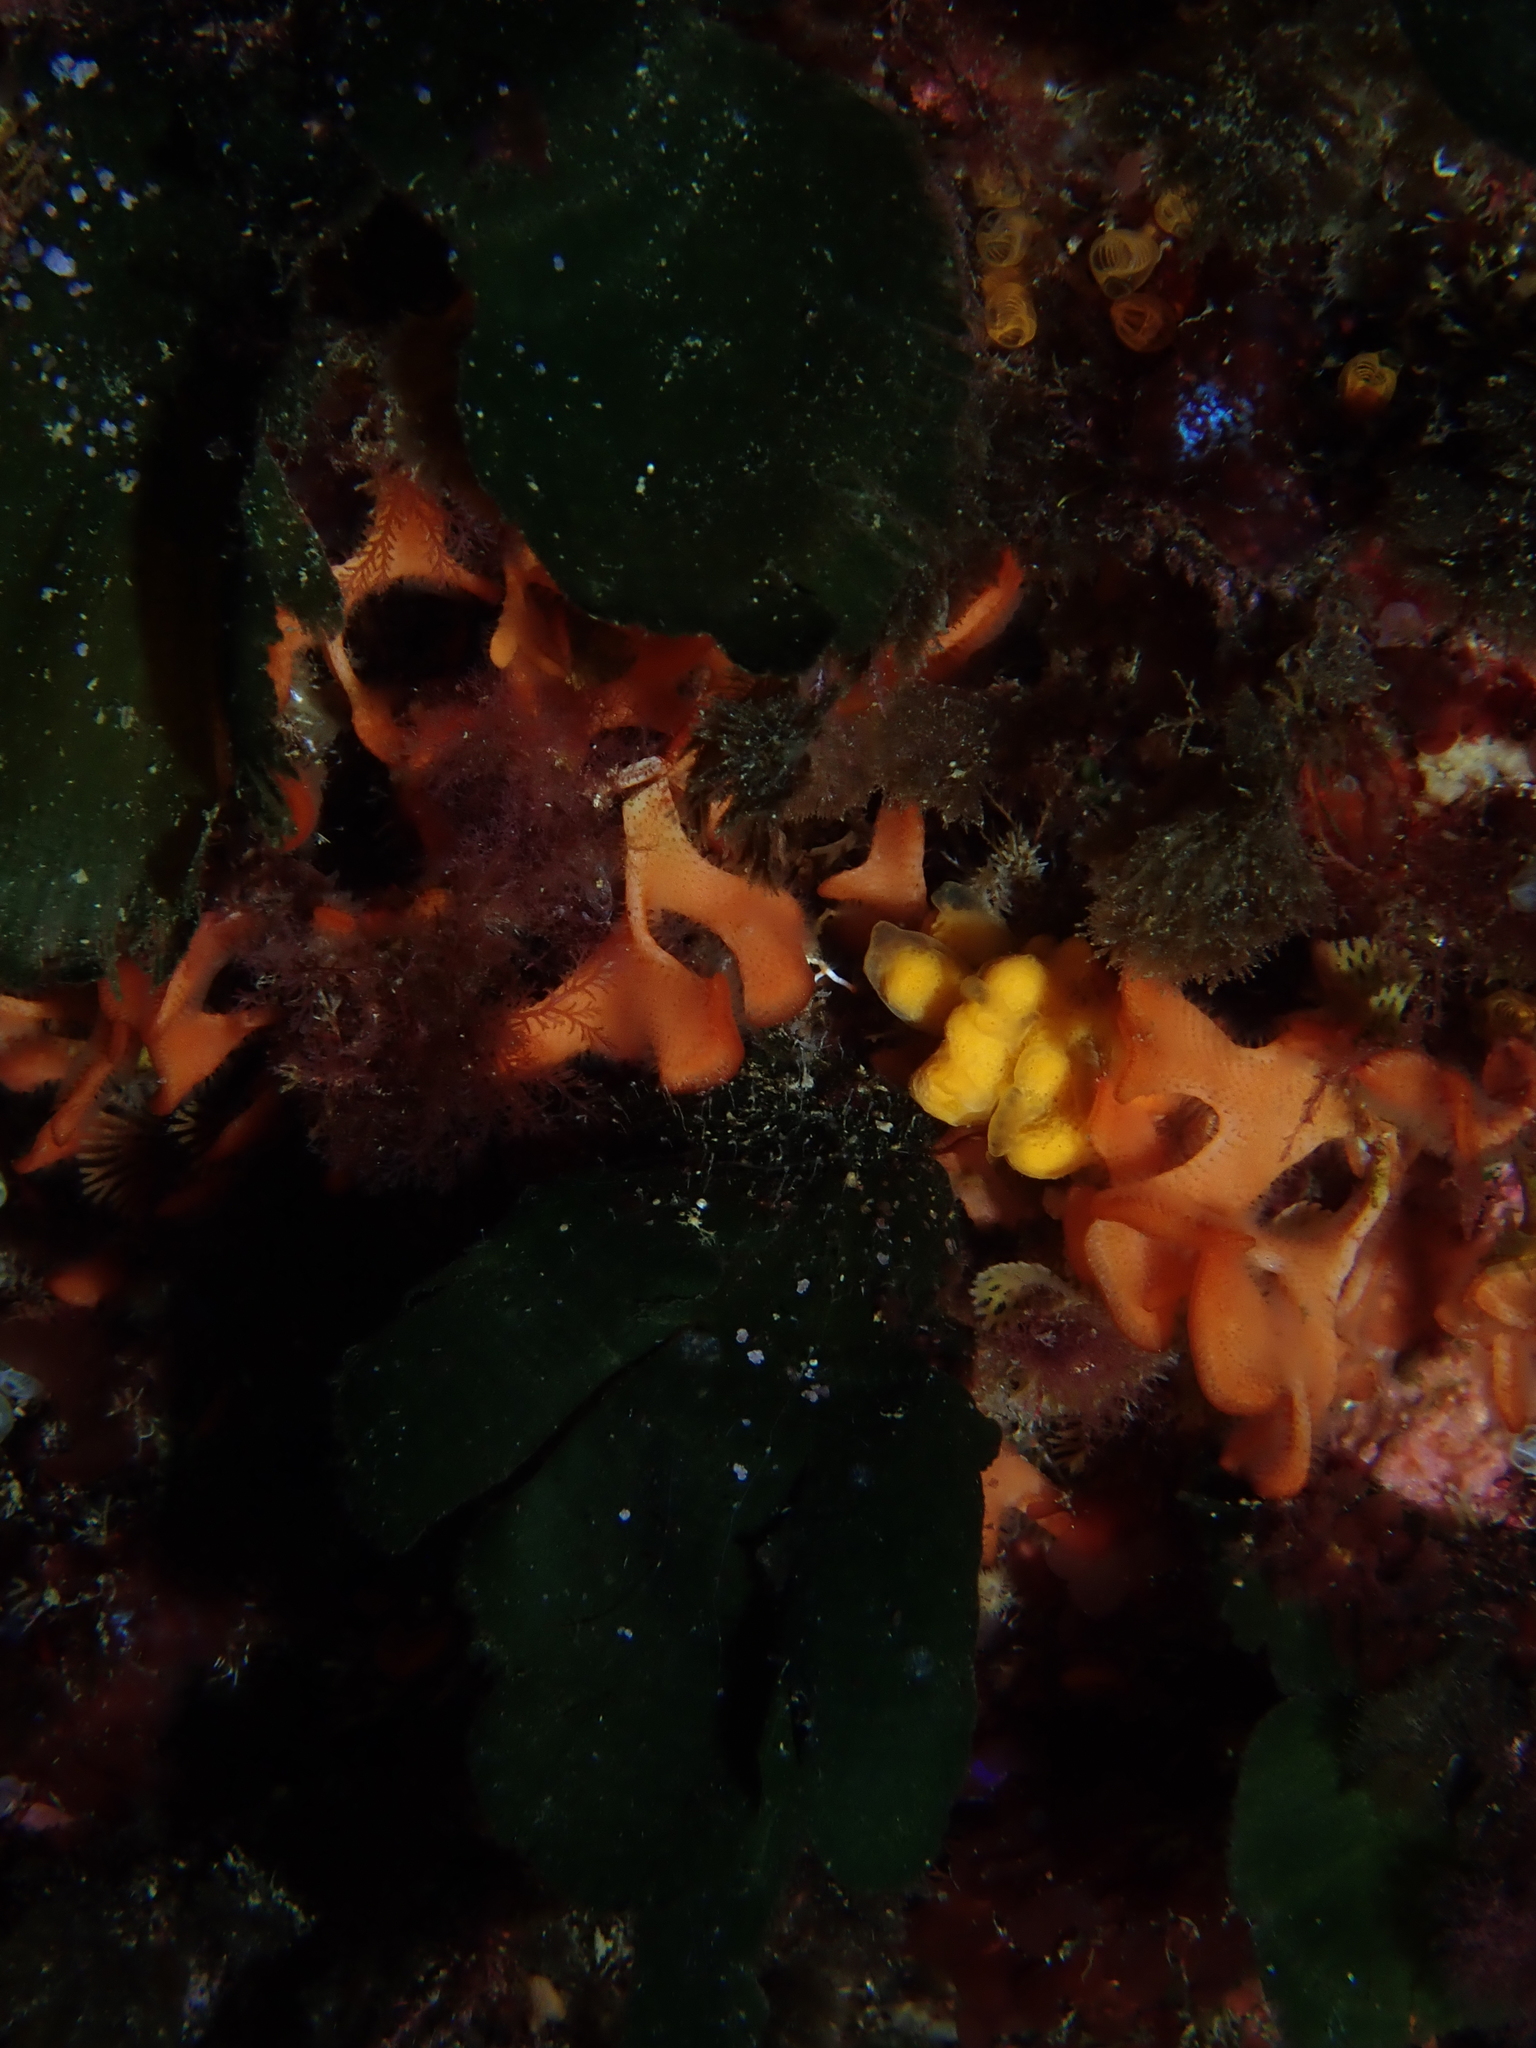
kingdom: Animalia
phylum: Porifera
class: Demospongiae
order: Axinellida
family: Axinellidae
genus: Axinella
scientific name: Axinella verrucosa
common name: Mediterranean mermaids glove
